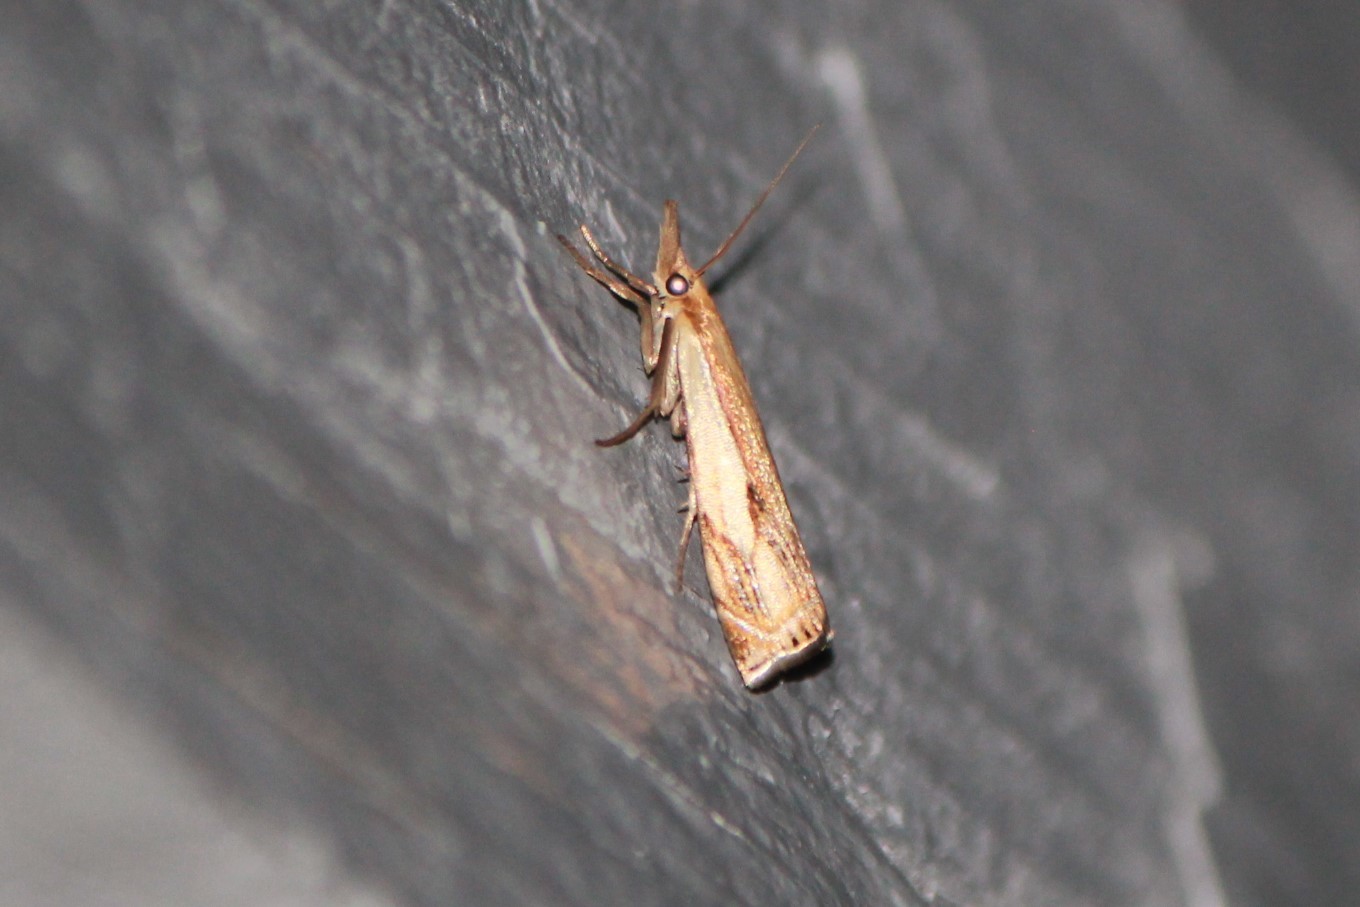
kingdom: Animalia
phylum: Arthropoda
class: Insecta
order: Lepidoptera
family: Crambidae
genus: Crambus
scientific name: Crambus agitatellus
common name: Double-banded grass-veneer
